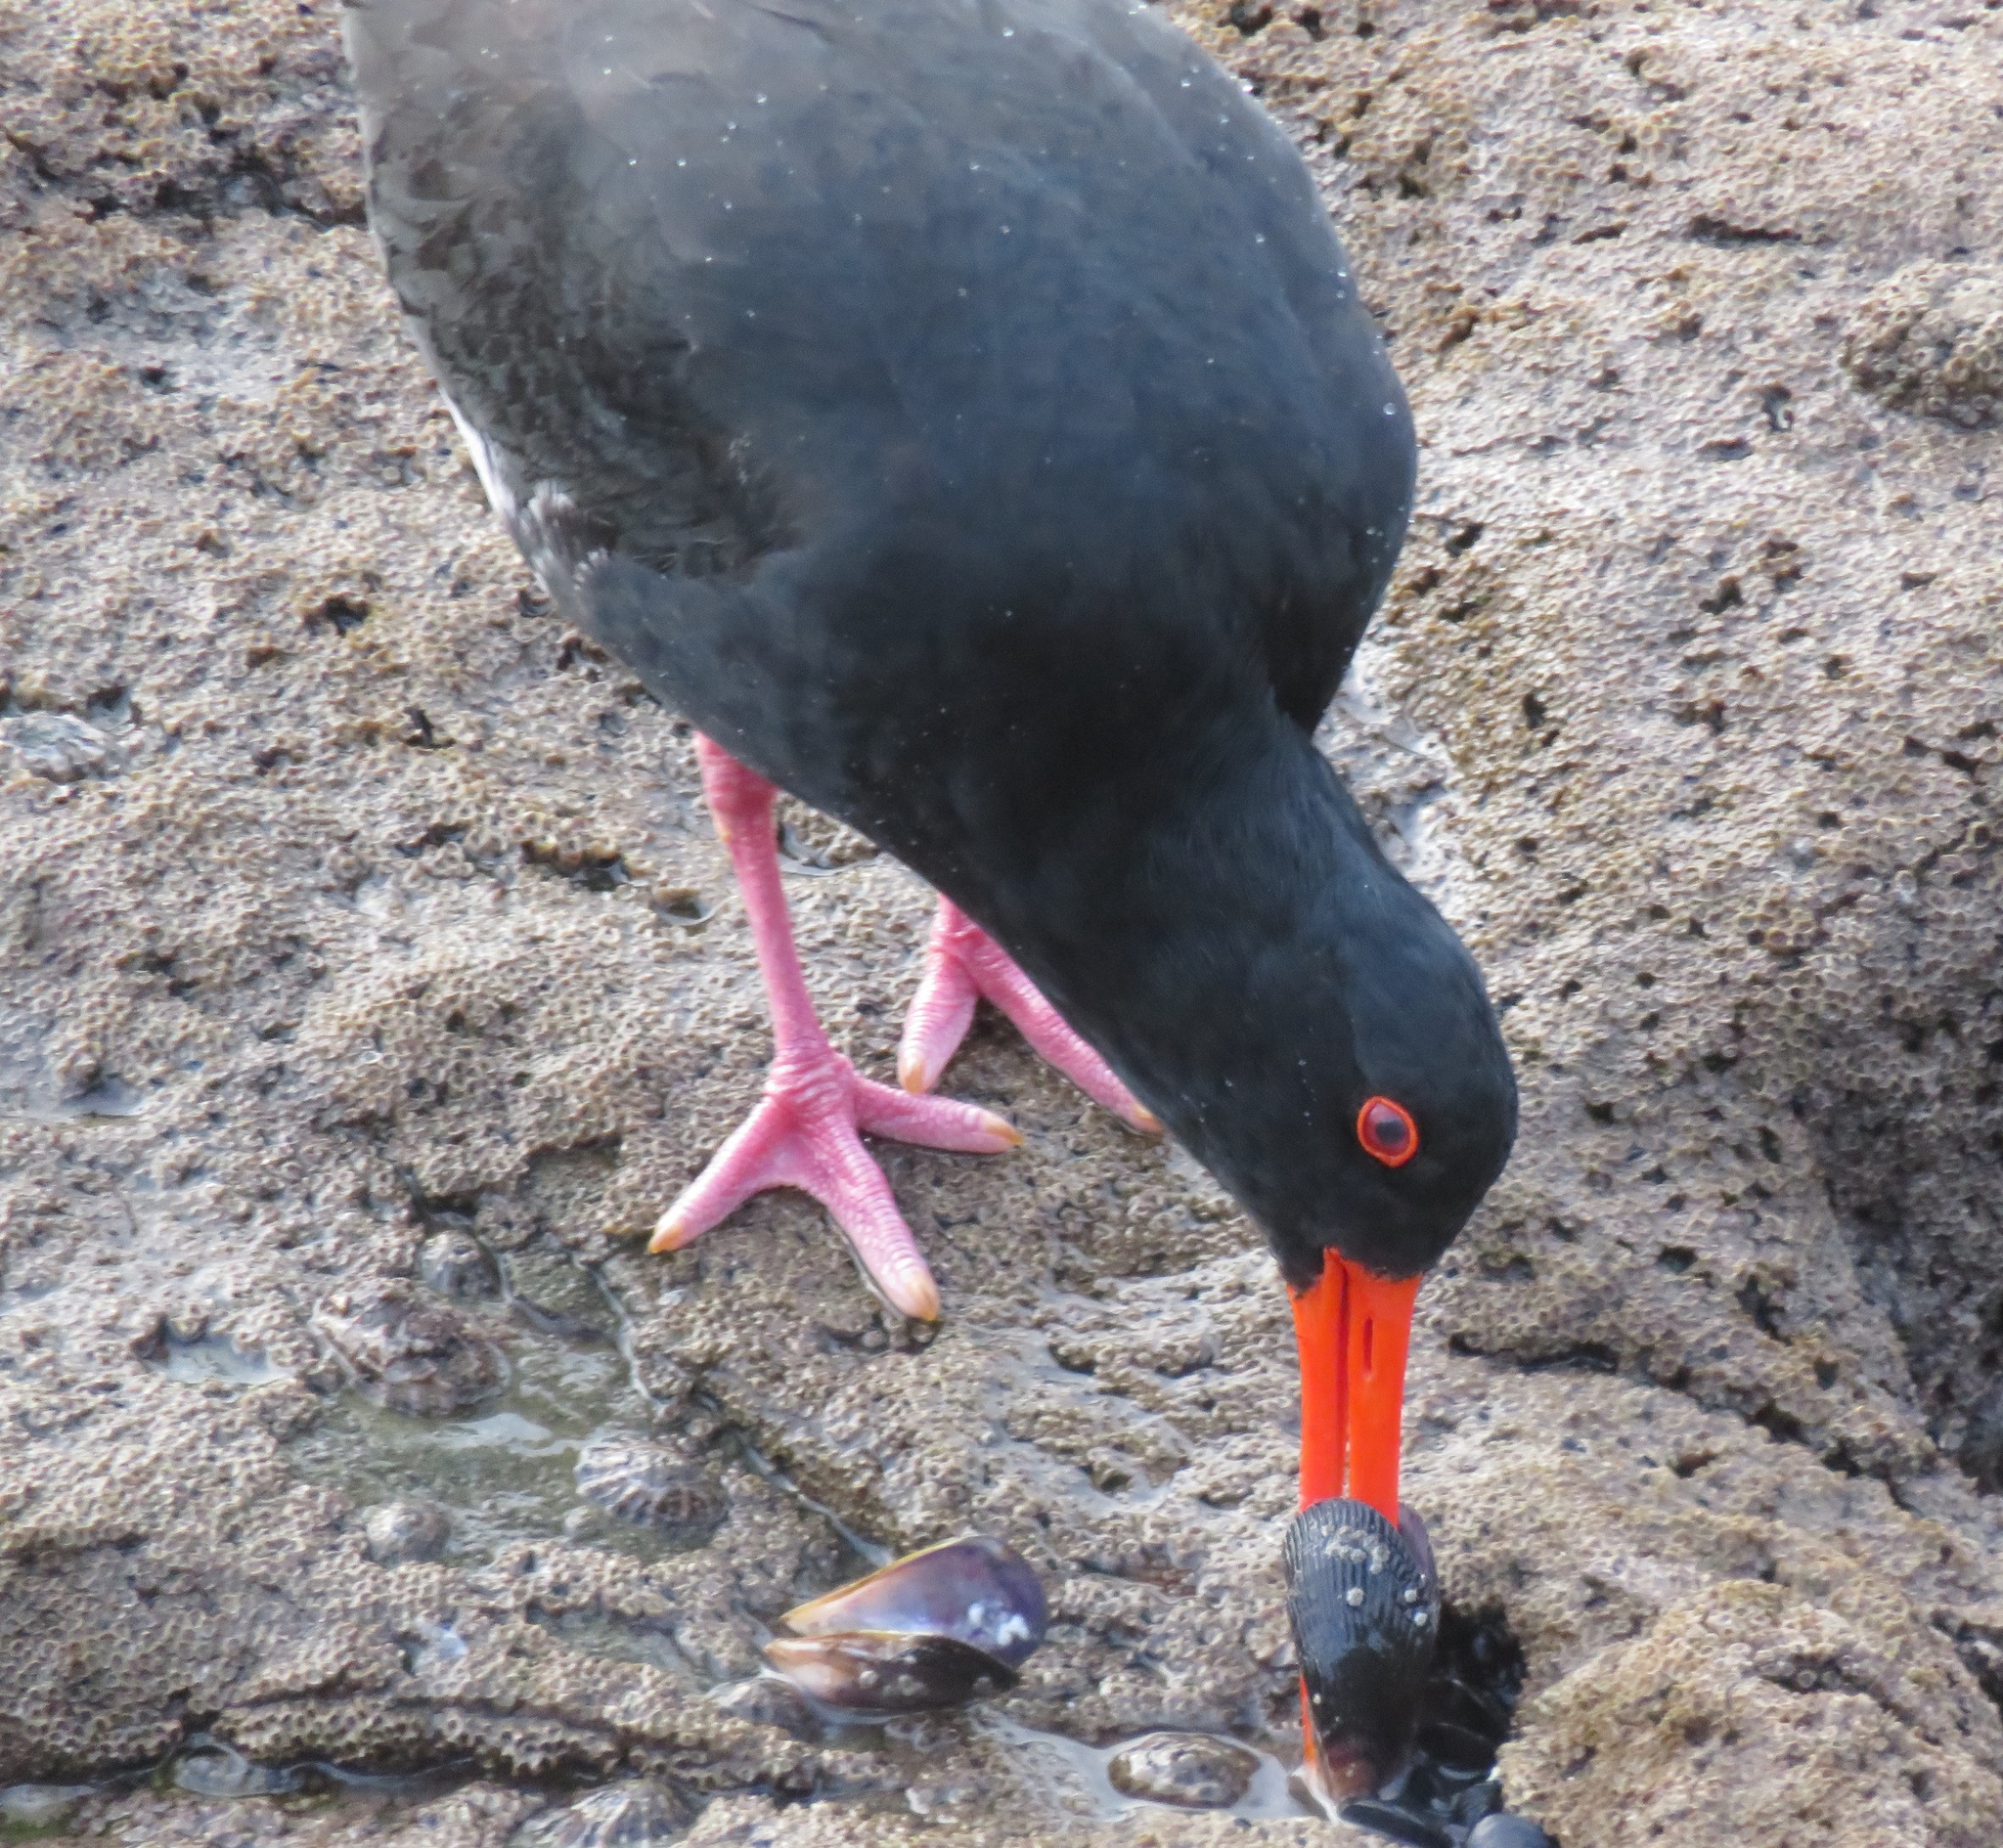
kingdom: Animalia
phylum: Chordata
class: Aves
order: Charadriiformes
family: Haematopodidae
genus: Haematopus
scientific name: Haematopus unicolor
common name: Variable oystercatcher
